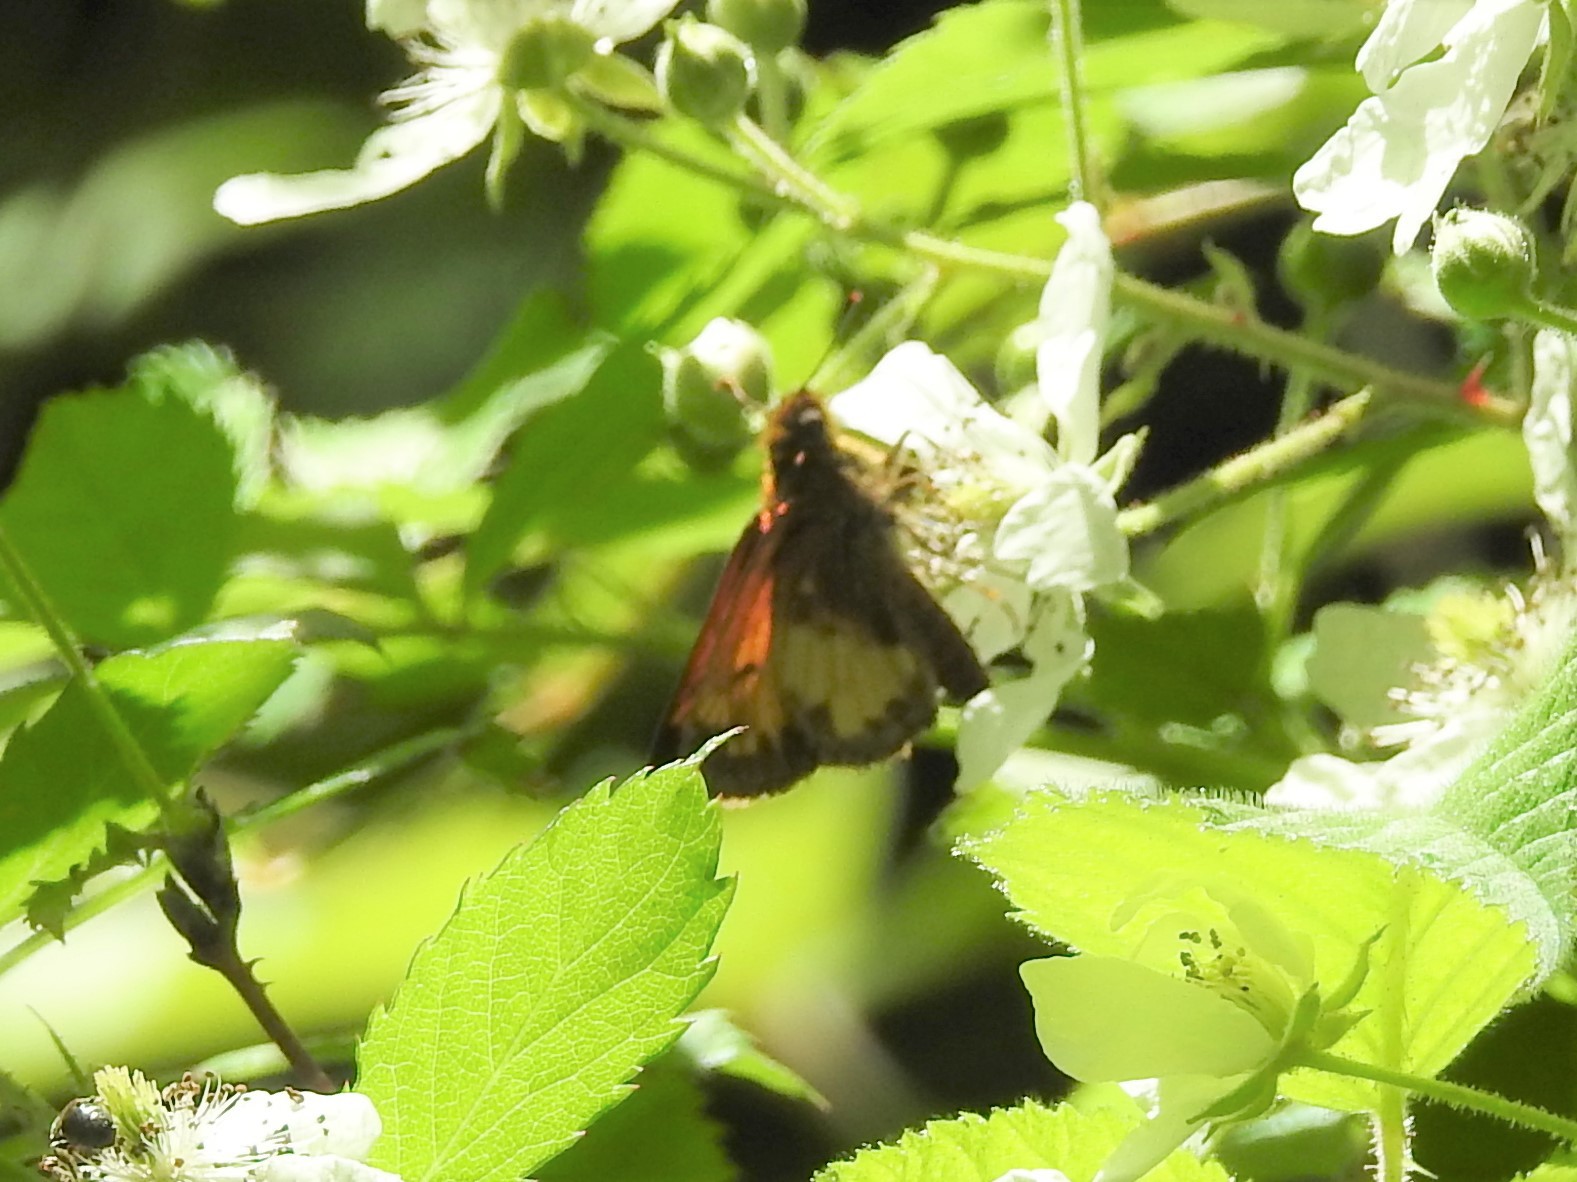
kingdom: Animalia
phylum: Arthropoda
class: Insecta
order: Lepidoptera
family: Hesperiidae
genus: Lon
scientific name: Lon hobomok
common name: Hobomok skipper
